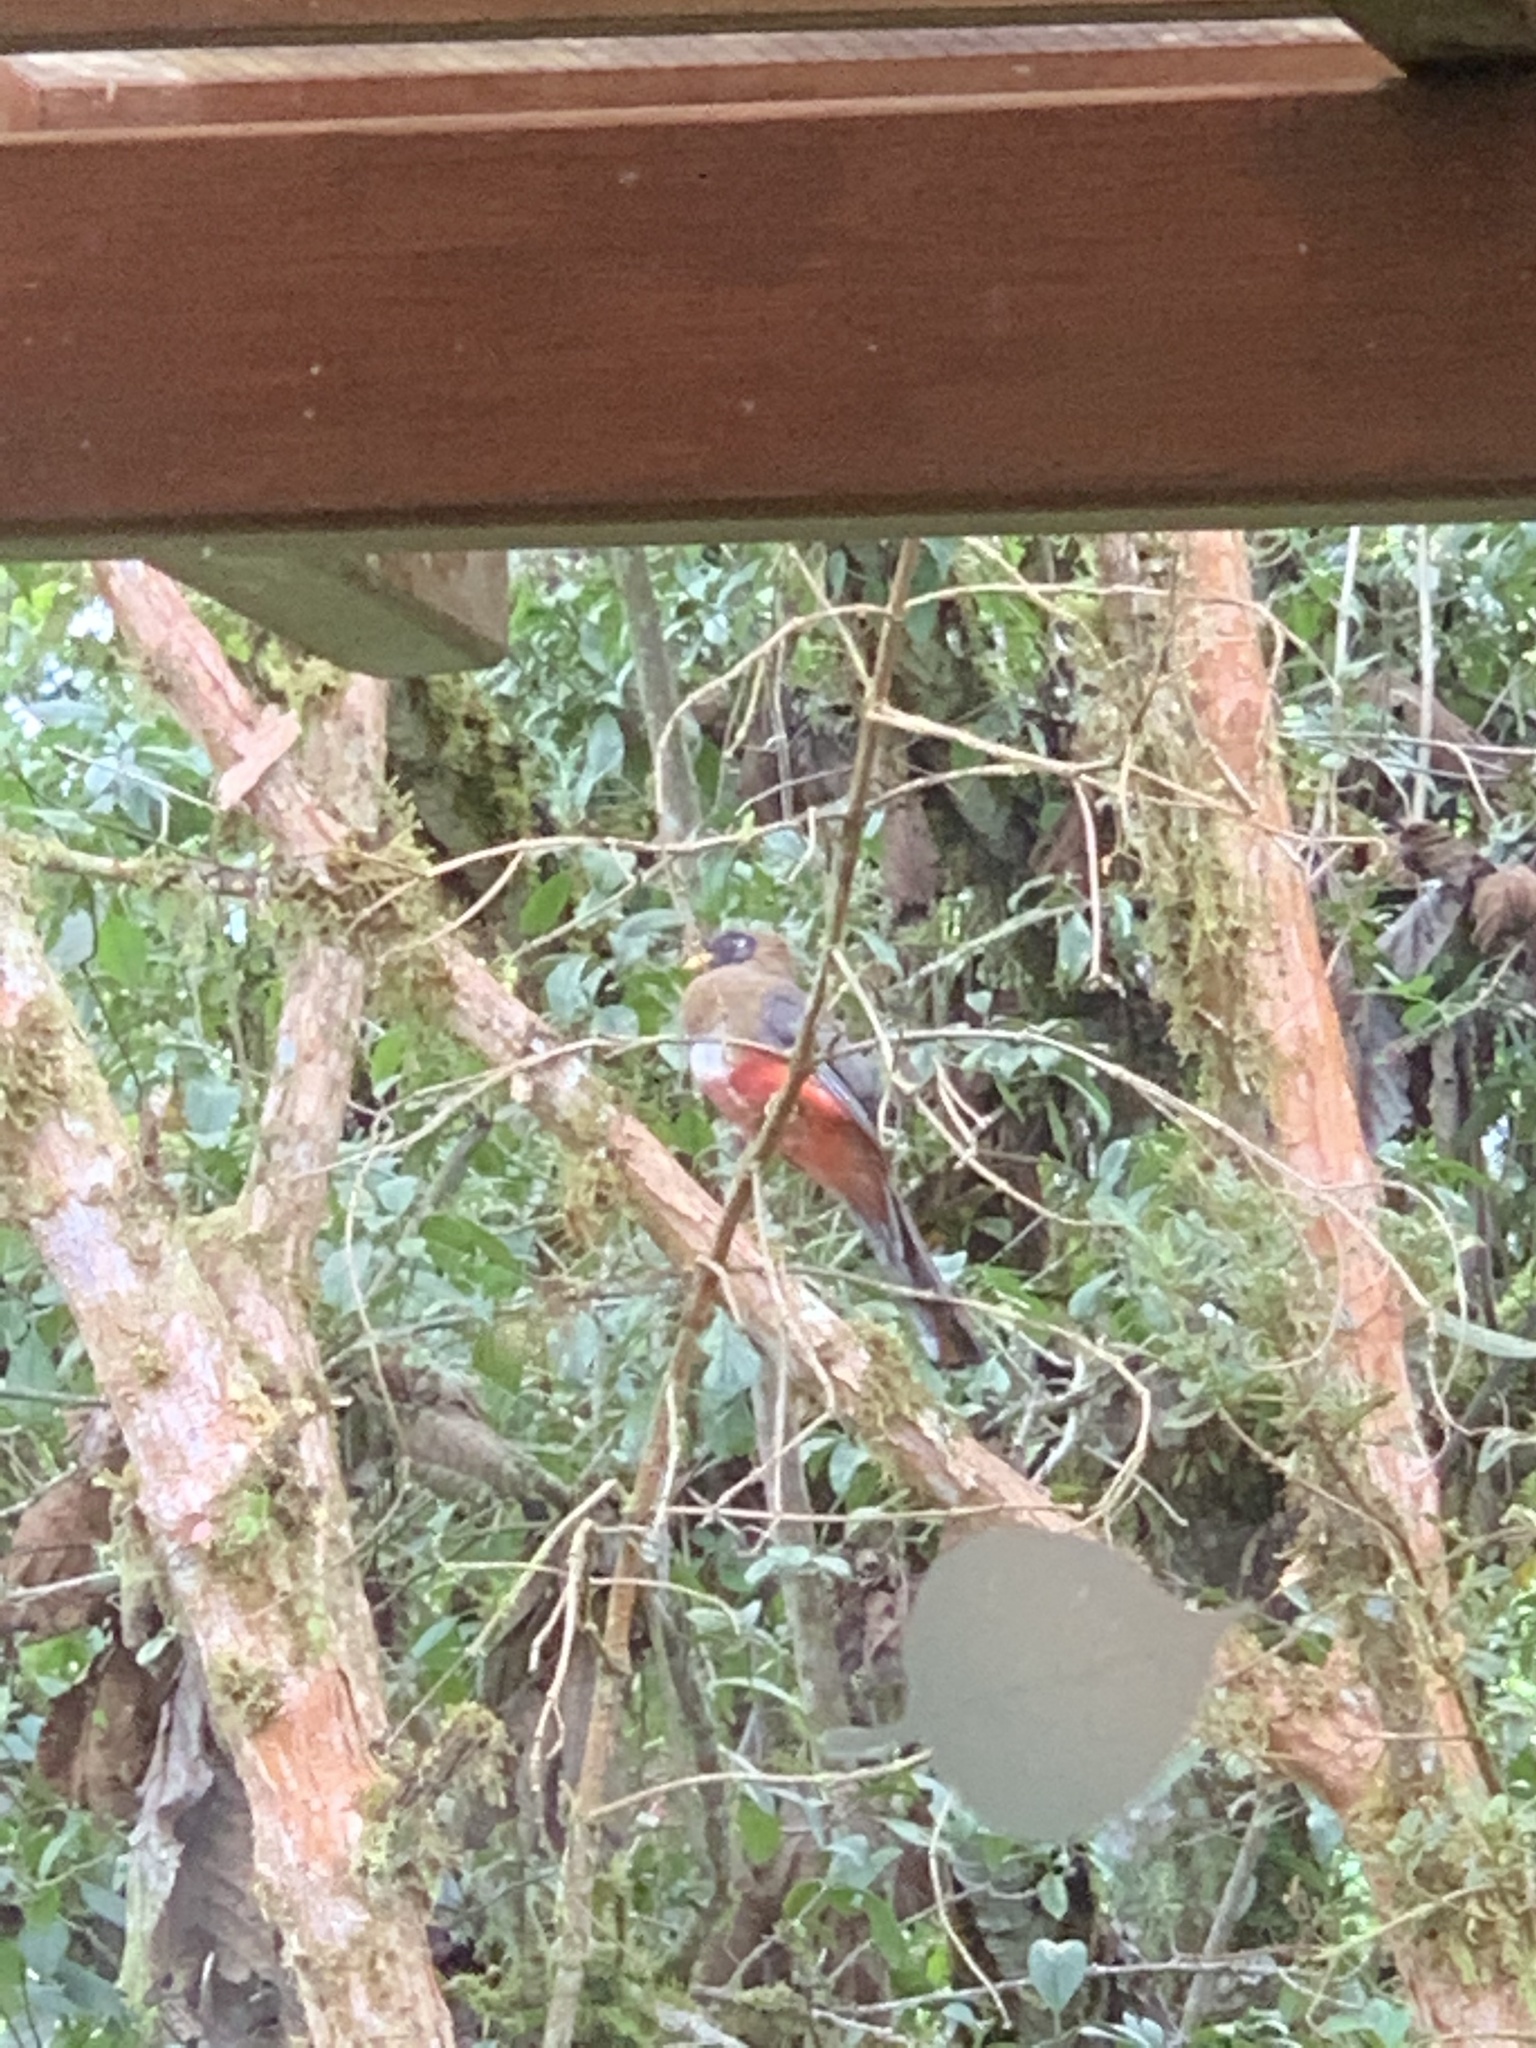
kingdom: Animalia
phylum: Chordata
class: Aves
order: Trogoniformes
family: Trogonidae
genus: Trogon
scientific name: Trogon personatus
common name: Masked trogon
